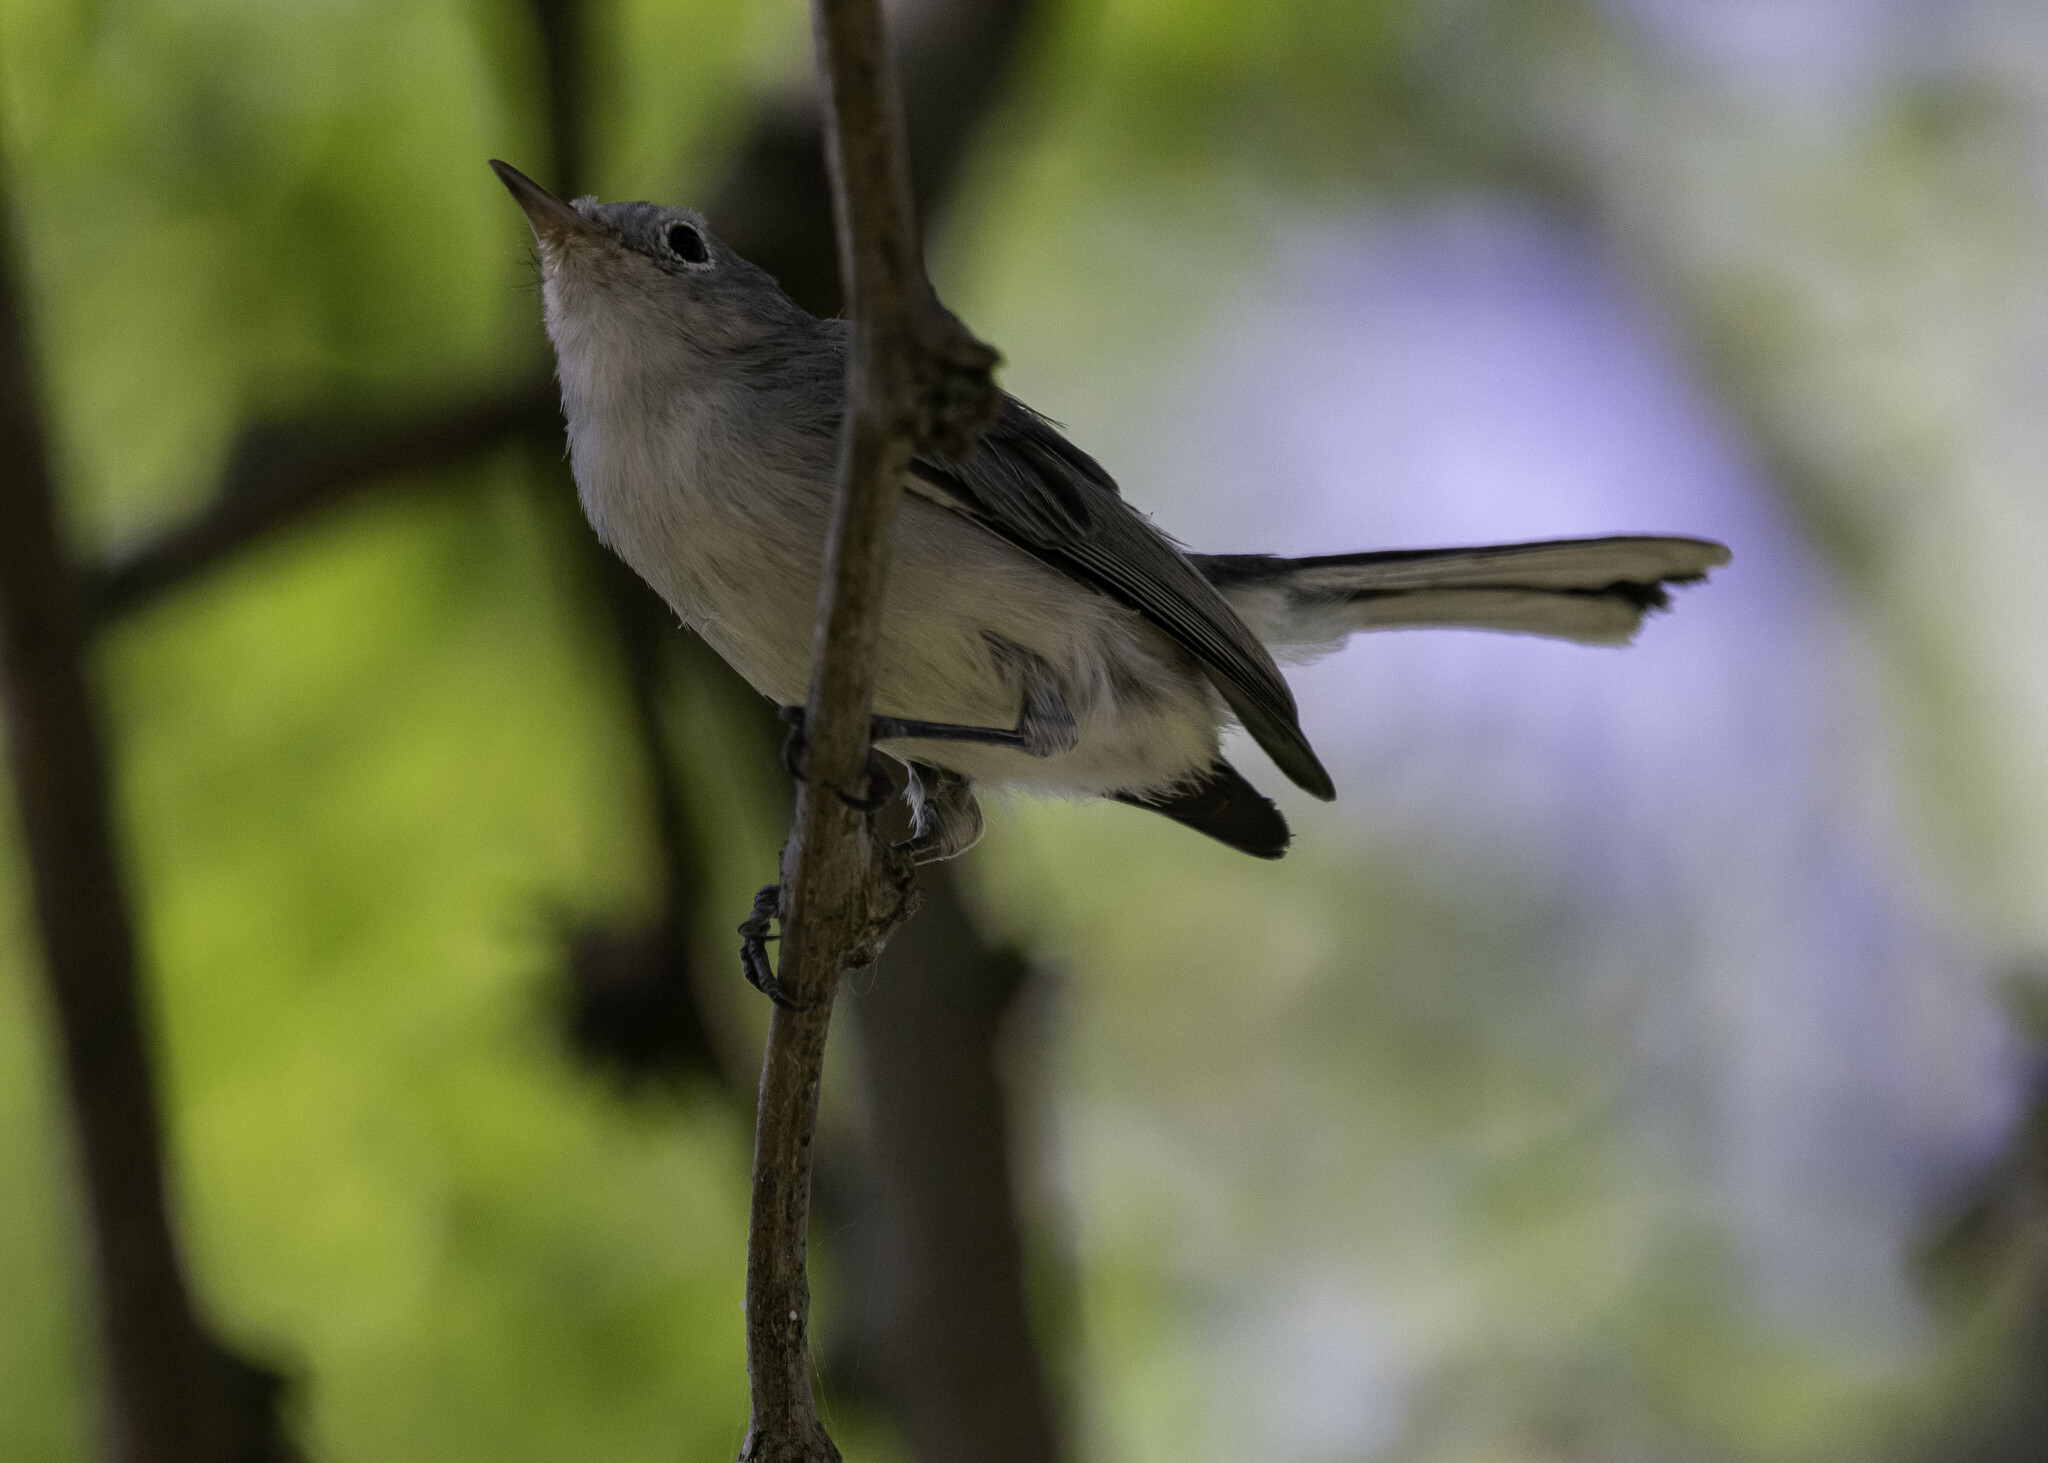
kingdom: Animalia
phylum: Chordata
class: Aves
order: Passeriformes
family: Polioptilidae
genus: Polioptila
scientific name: Polioptila caerulea
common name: Blue-gray gnatcatcher
